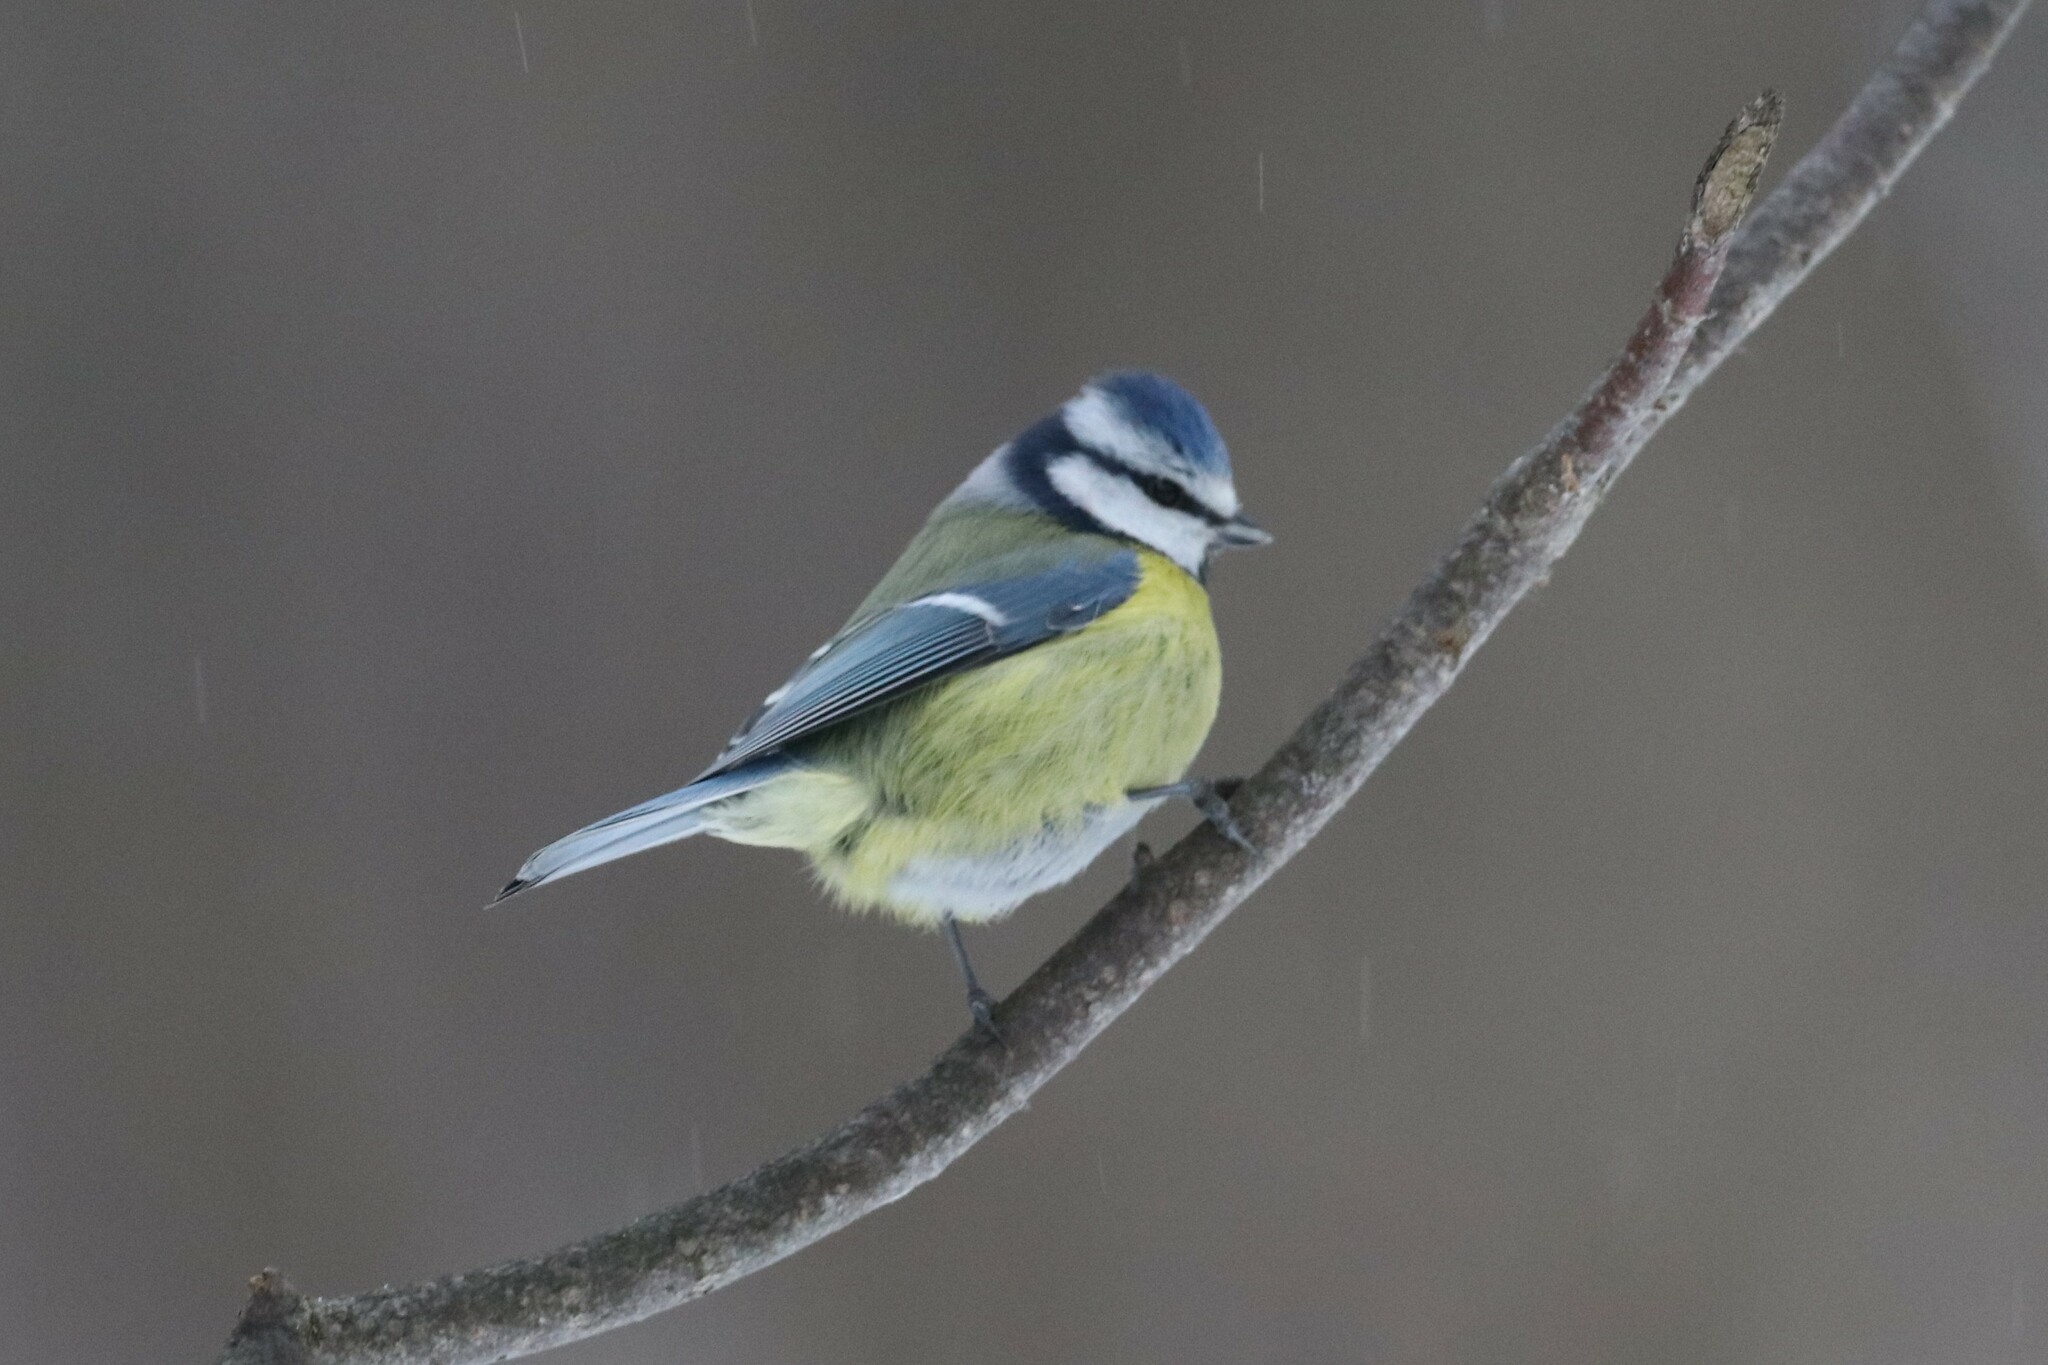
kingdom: Animalia
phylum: Chordata
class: Aves
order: Passeriformes
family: Paridae
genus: Cyanistes
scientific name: Cyanistes caeruleus
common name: Eurasian blue tit
